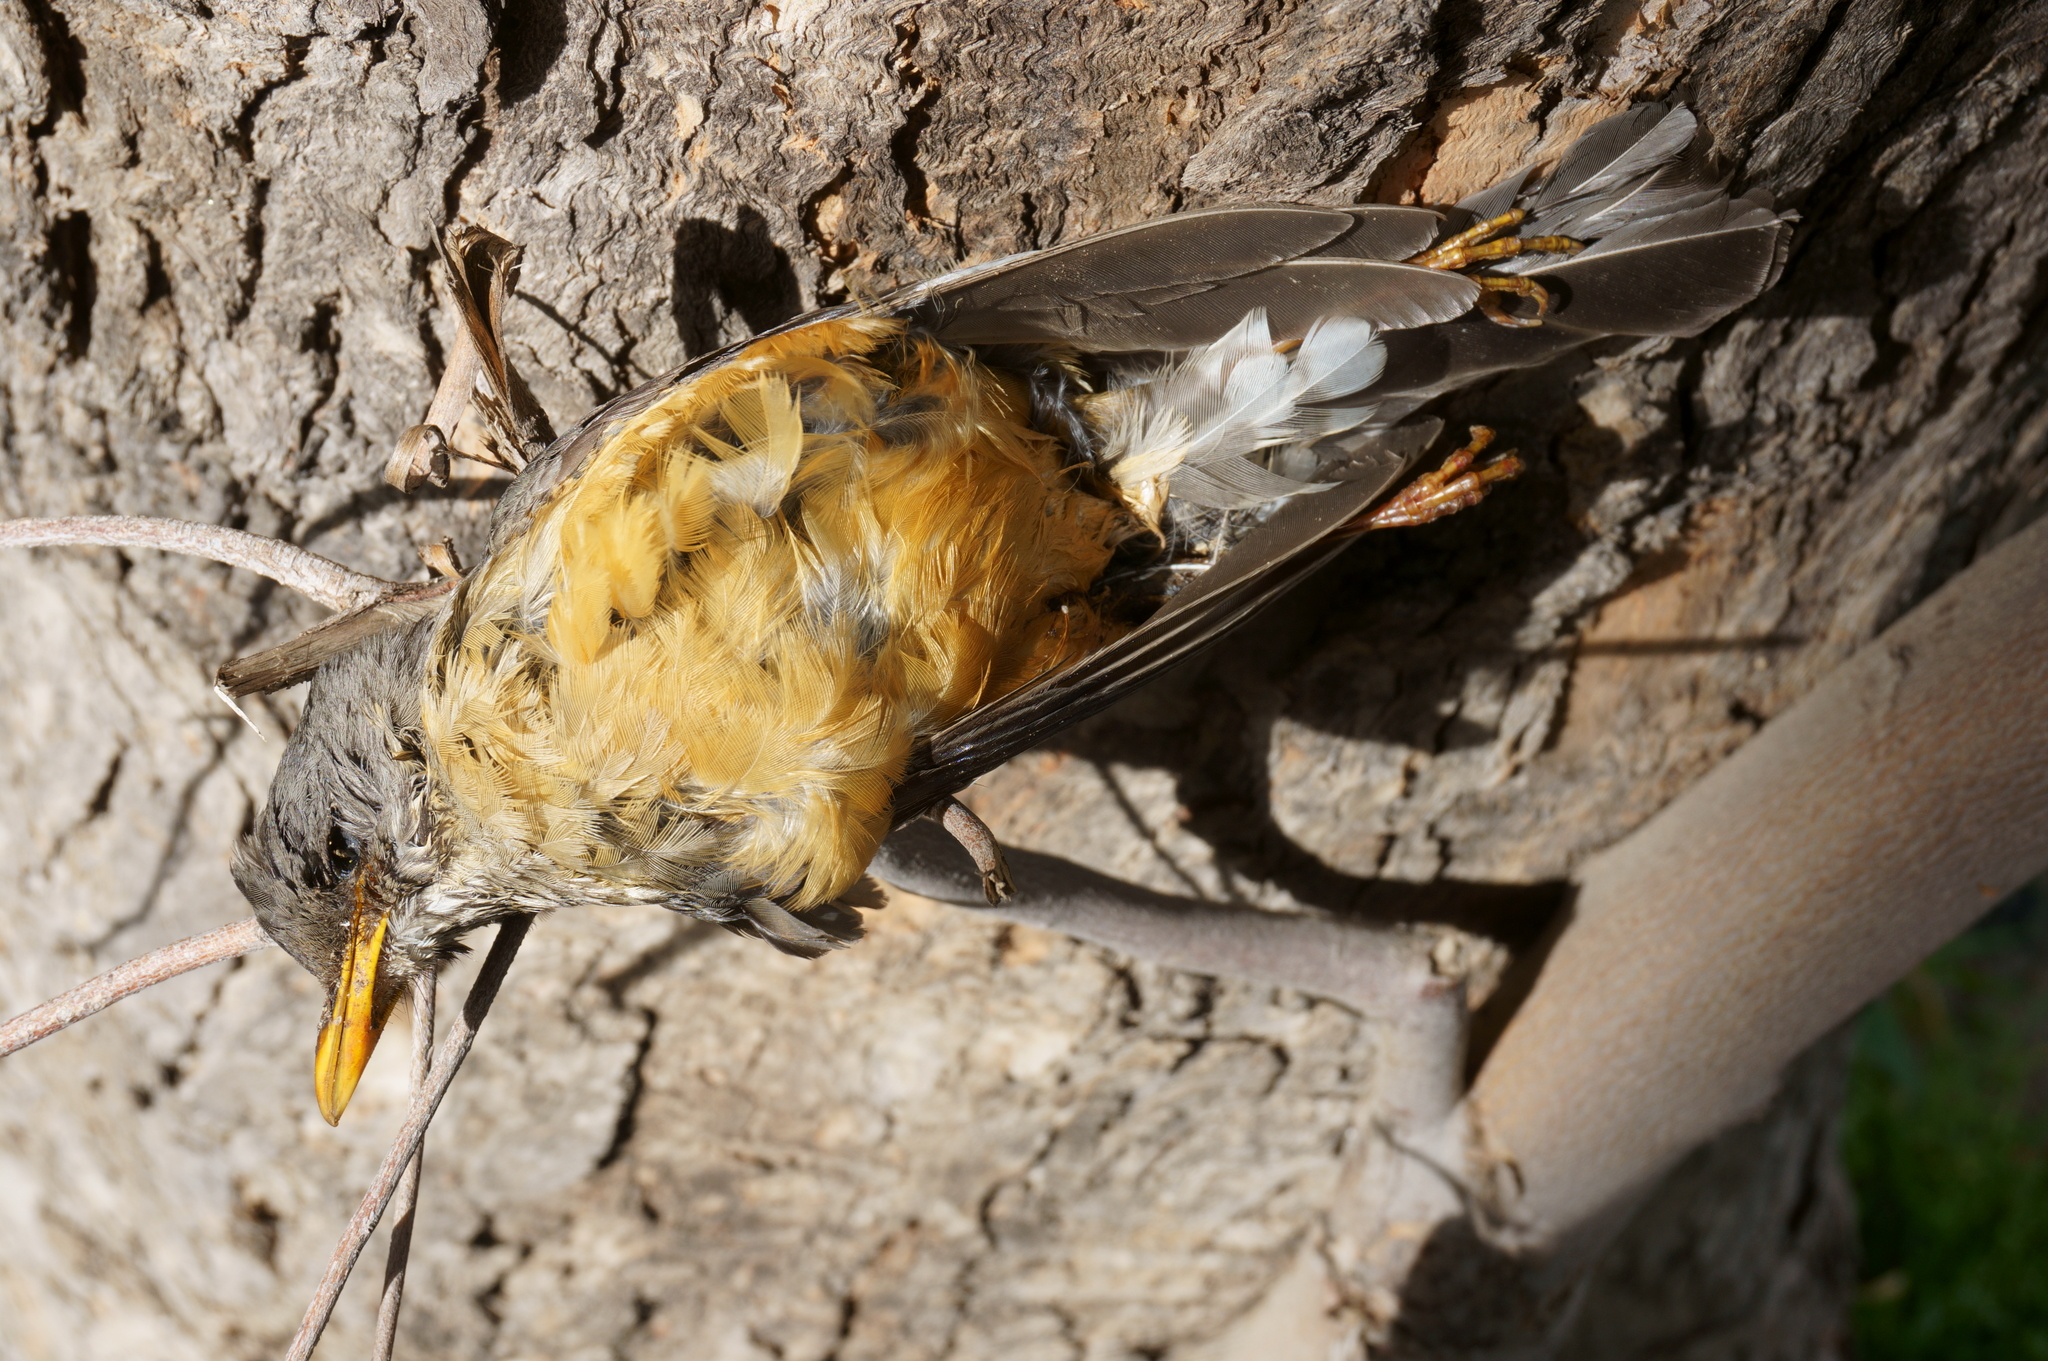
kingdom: Animalia
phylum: Chordata
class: Aves
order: Passeriformes
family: Turdidae
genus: Turdus
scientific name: Turdus olivaceus
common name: Olive thrush
